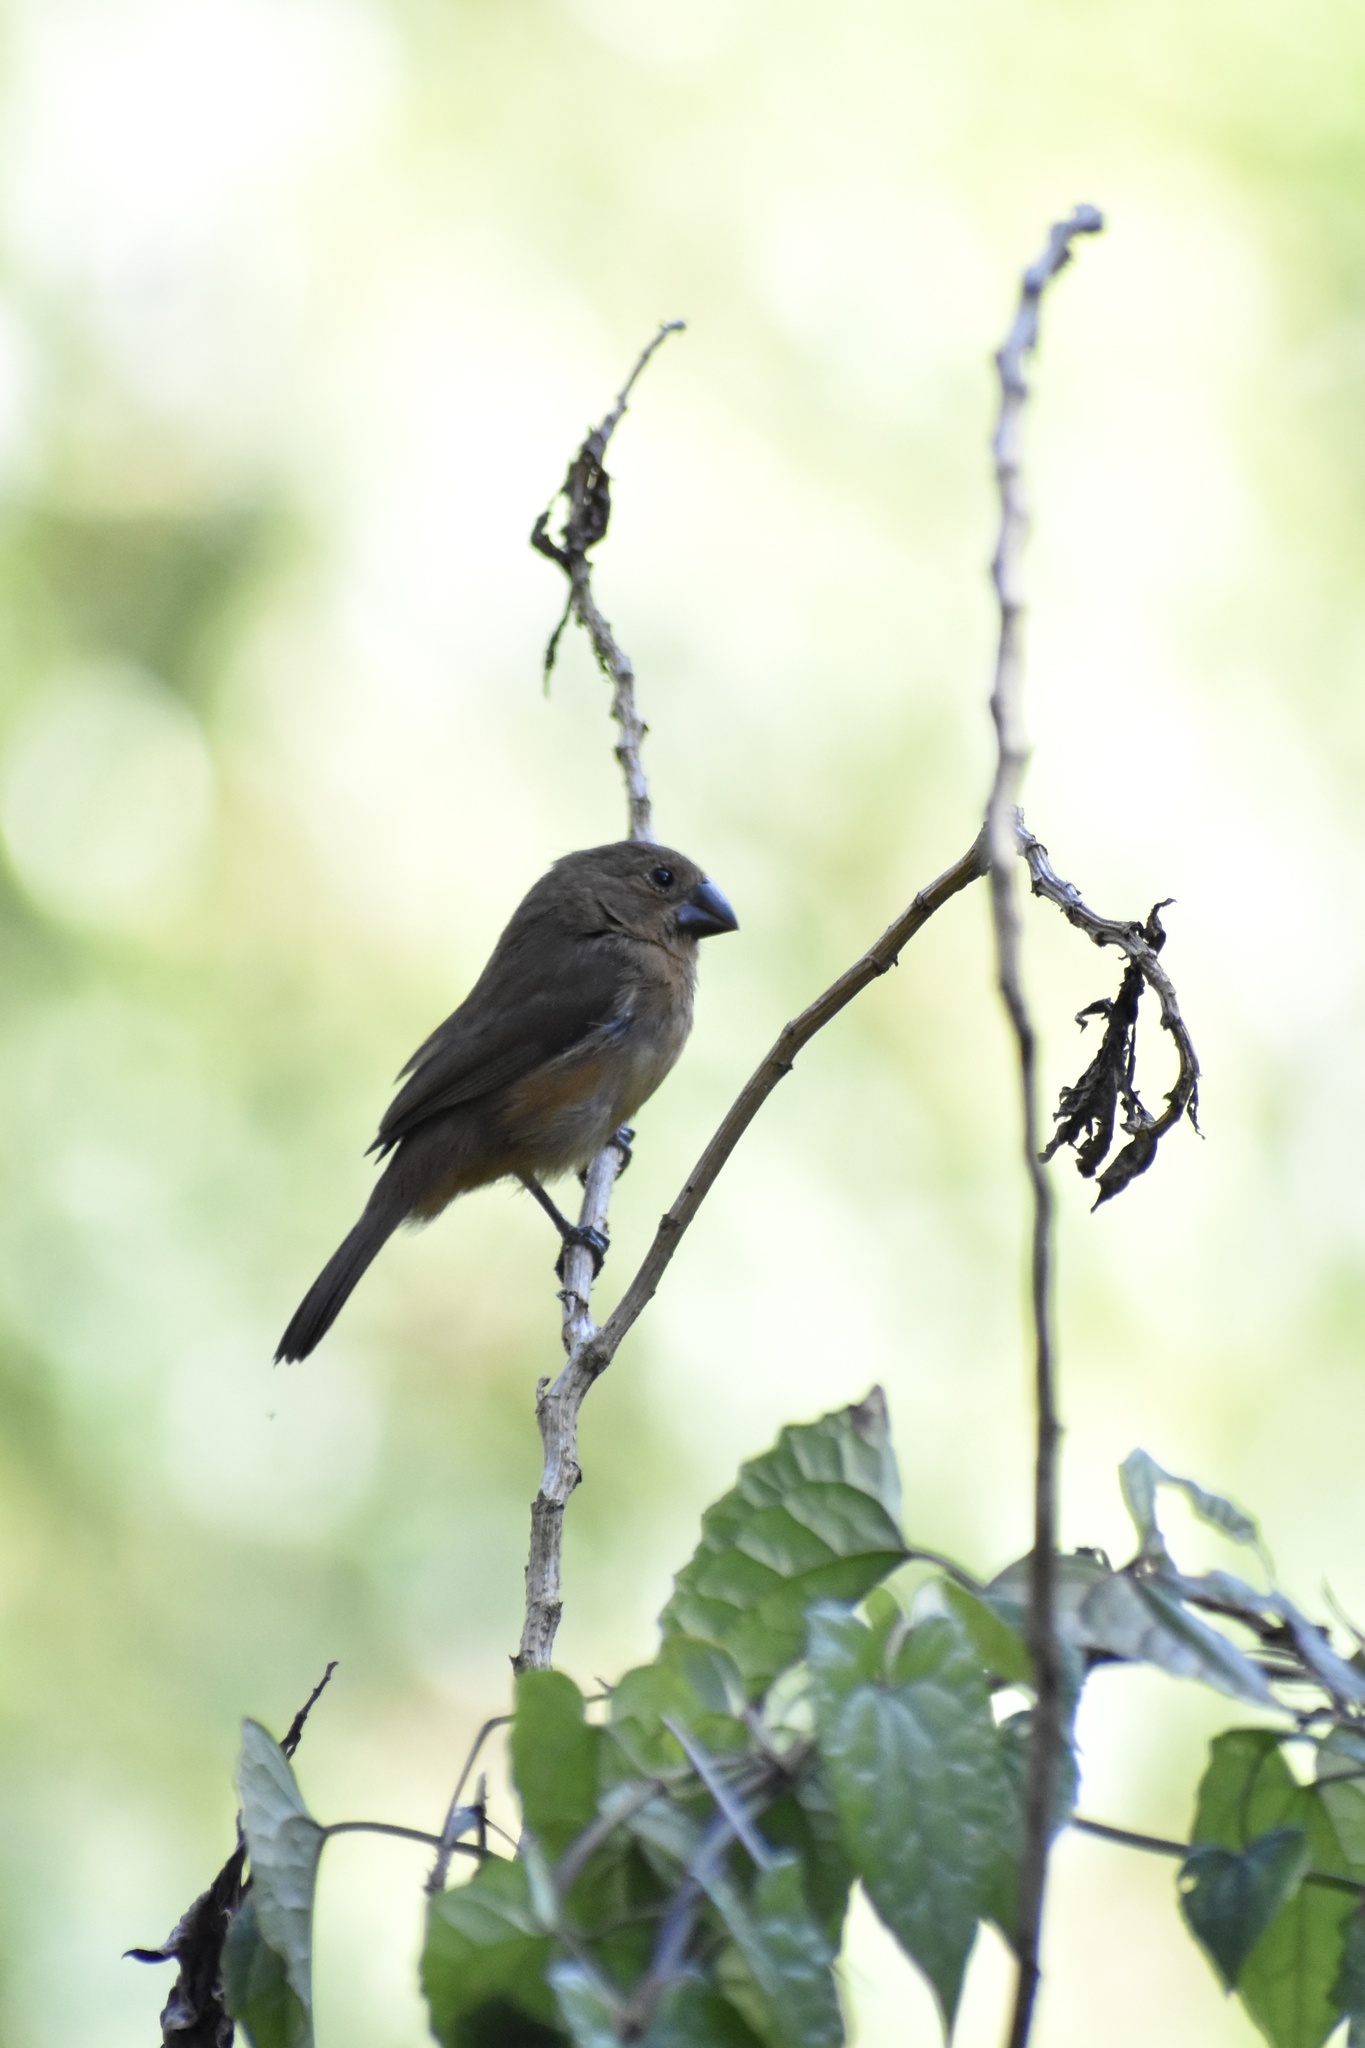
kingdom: Animalia
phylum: Chordata
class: Aves
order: Passeriformes
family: Thraupidae
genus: Sporophila
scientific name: Sporophila funerea
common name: Thick-billed seed-finch
